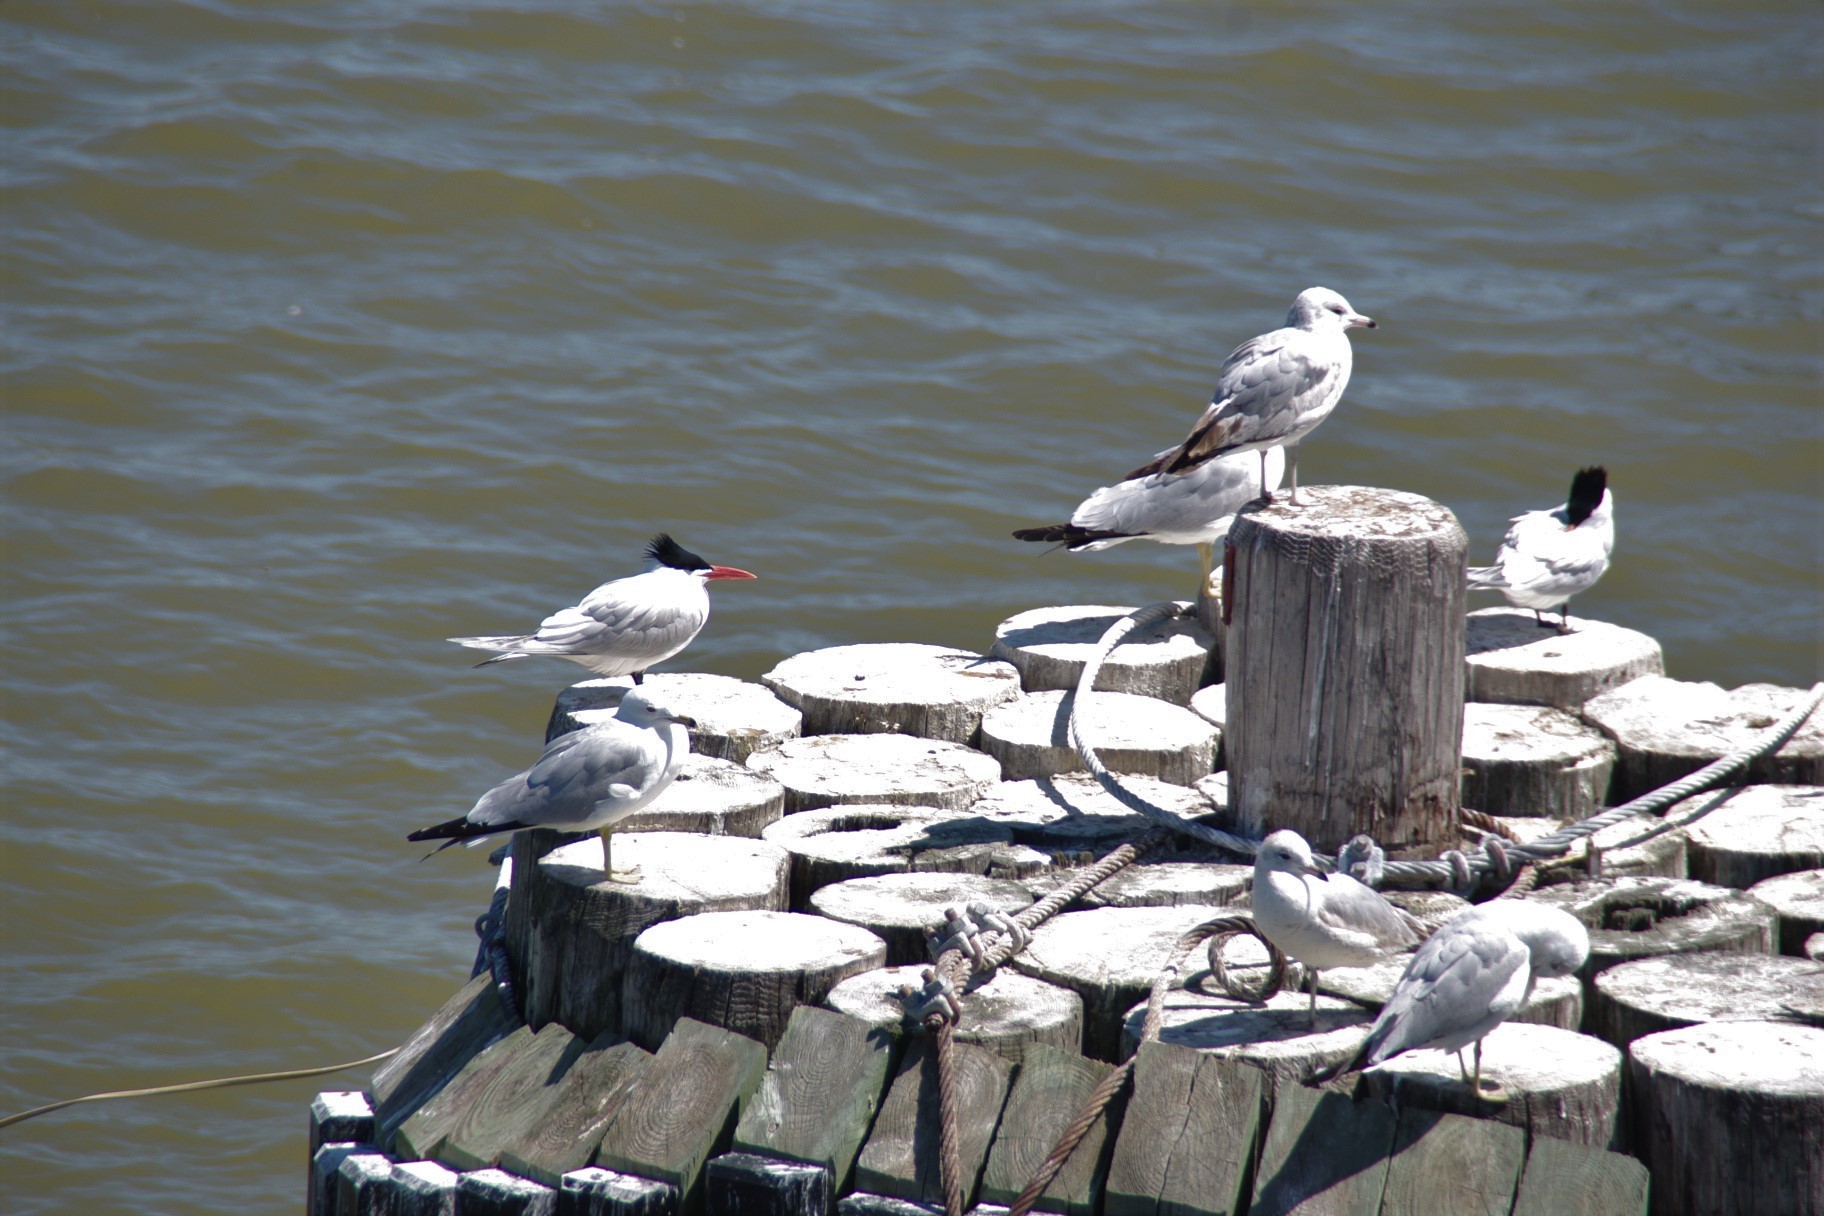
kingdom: Animalia
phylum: Chordata
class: Aves
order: Charadriiformes
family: Laridae
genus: Thalasseus
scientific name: Thalasseus maximus
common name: Royal tern
